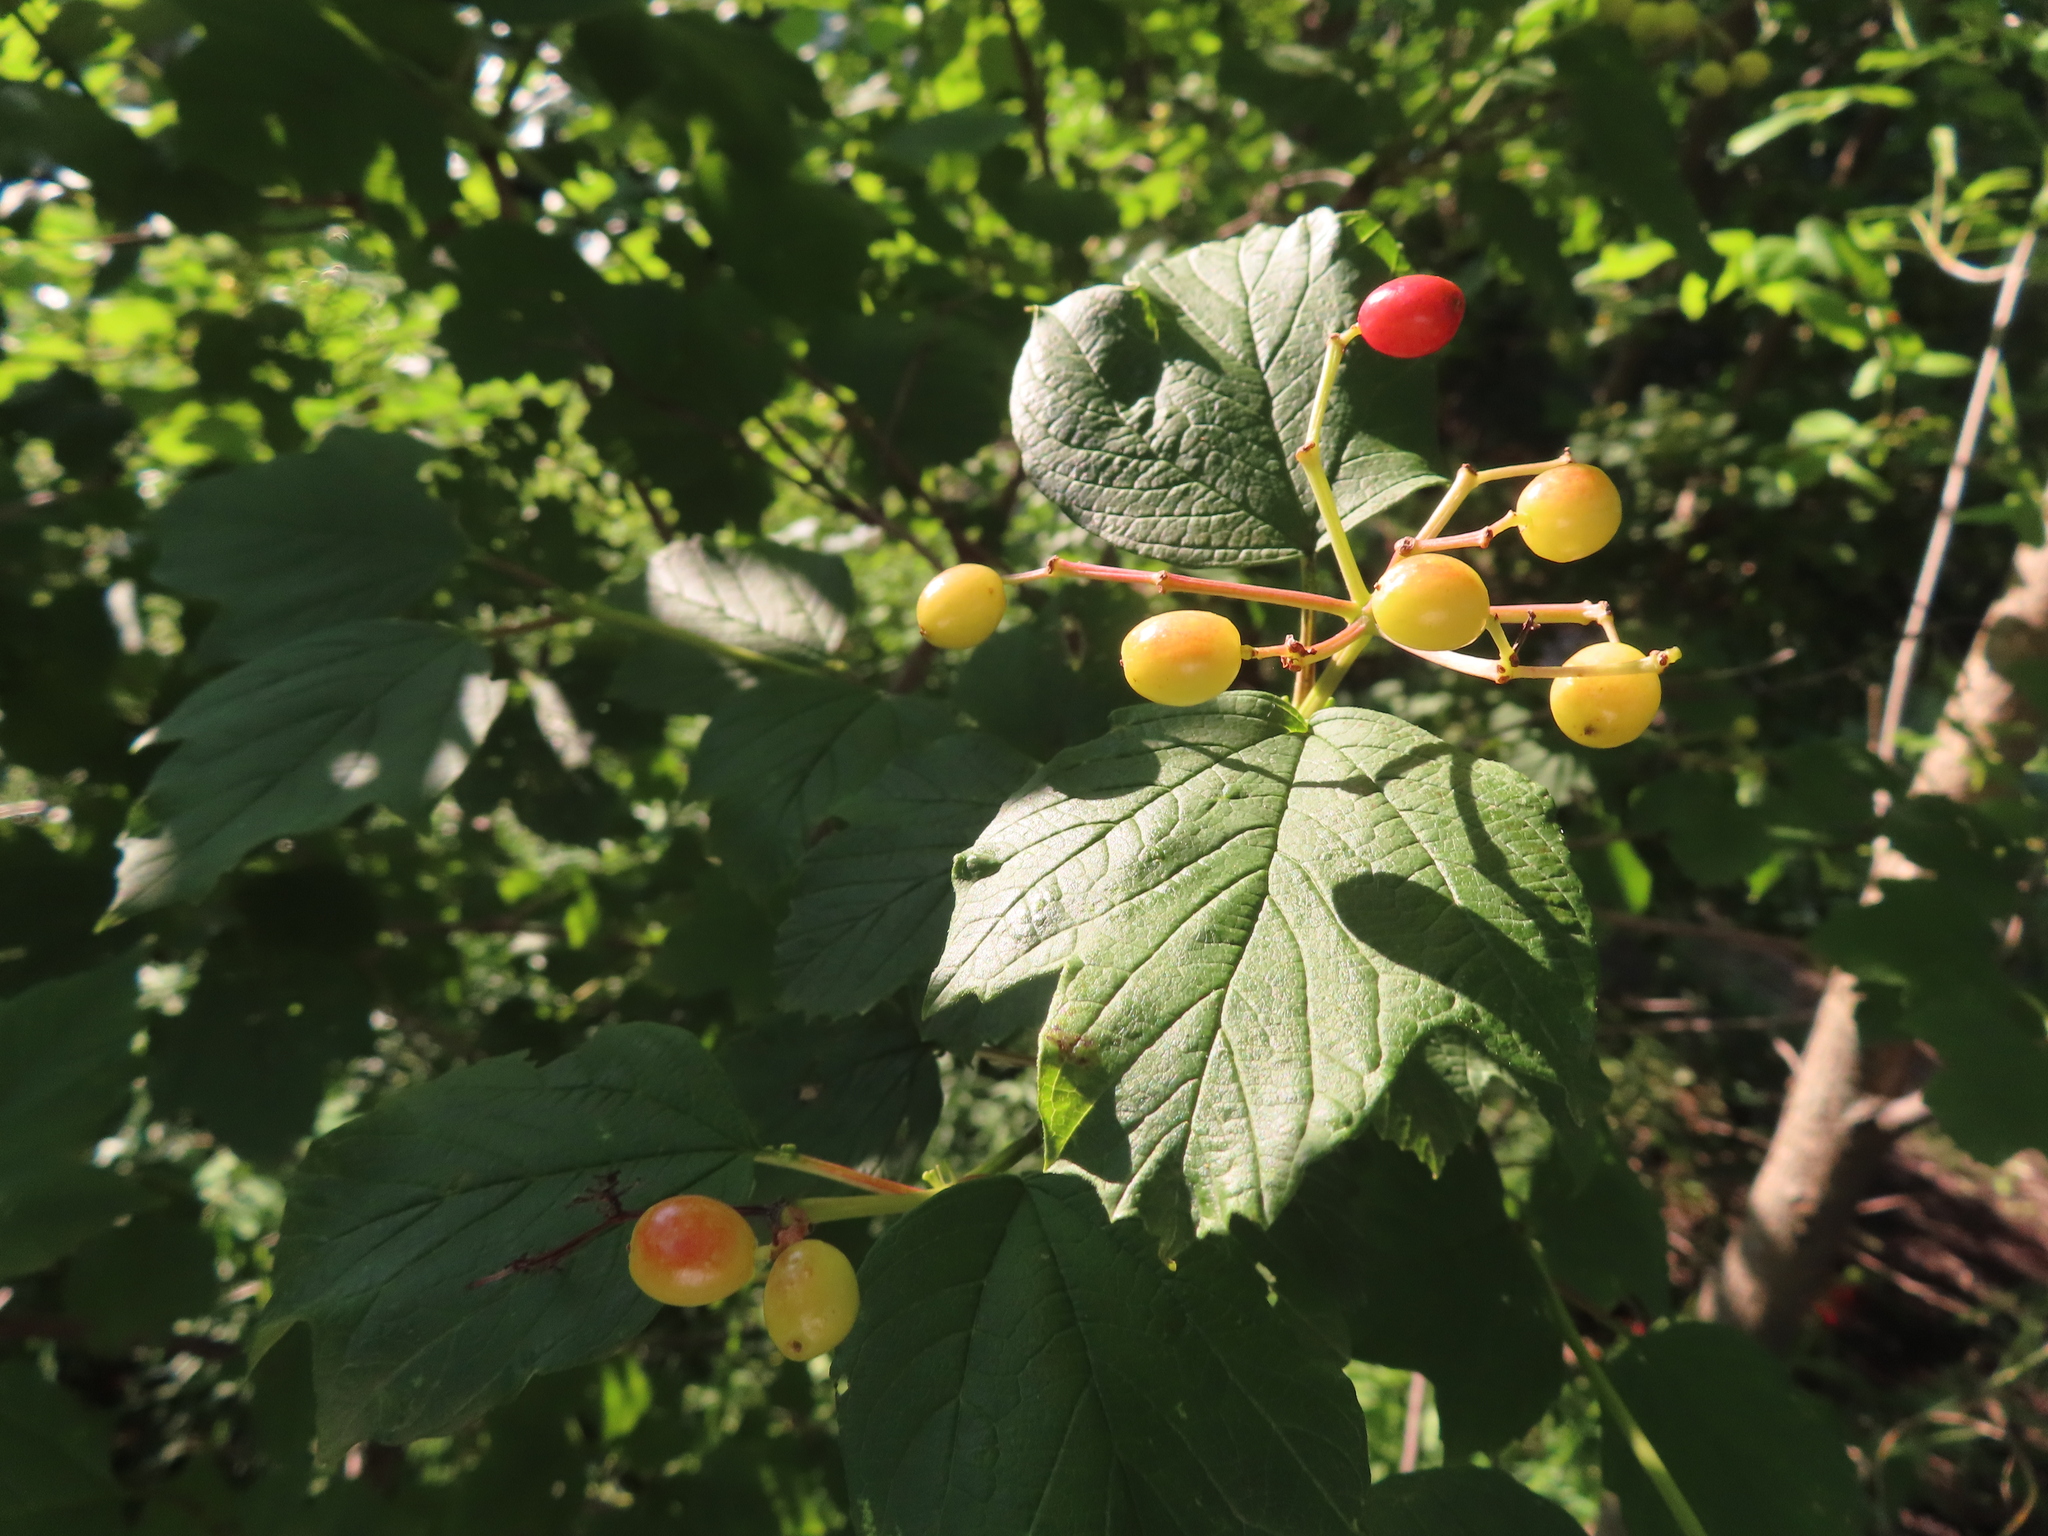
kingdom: Plantae
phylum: Tracheophyta
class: Magnoliopsida
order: Dipsacales
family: Viburnaceae
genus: Viburnum
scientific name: Viburnum opulus
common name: Guelder-rose
